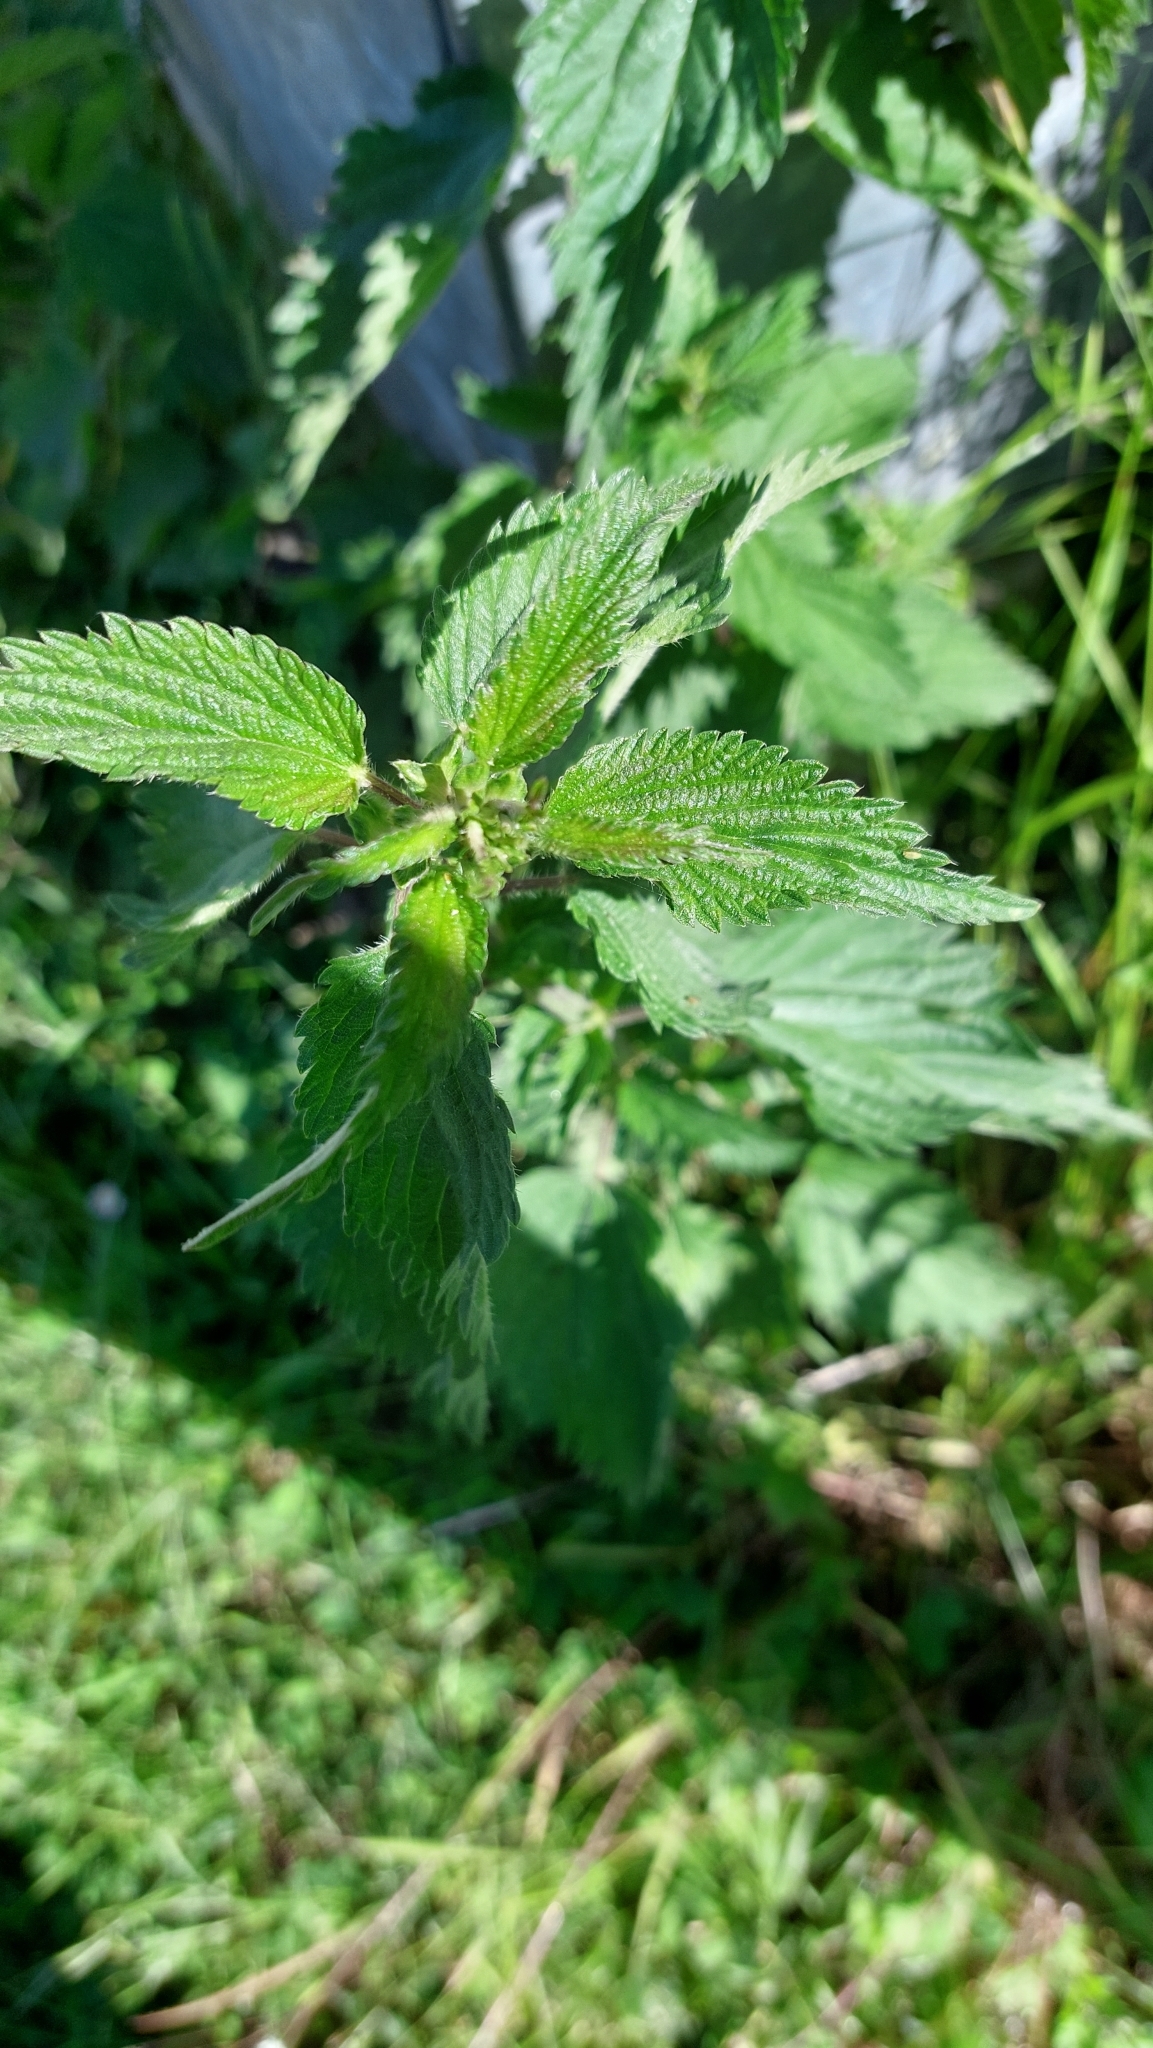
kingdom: Plantae
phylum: Tracheophyta
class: Magnoliopsida
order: Rosales
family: Urticaceae
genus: Urtica
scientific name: Urtica dioica
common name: Common nettle
